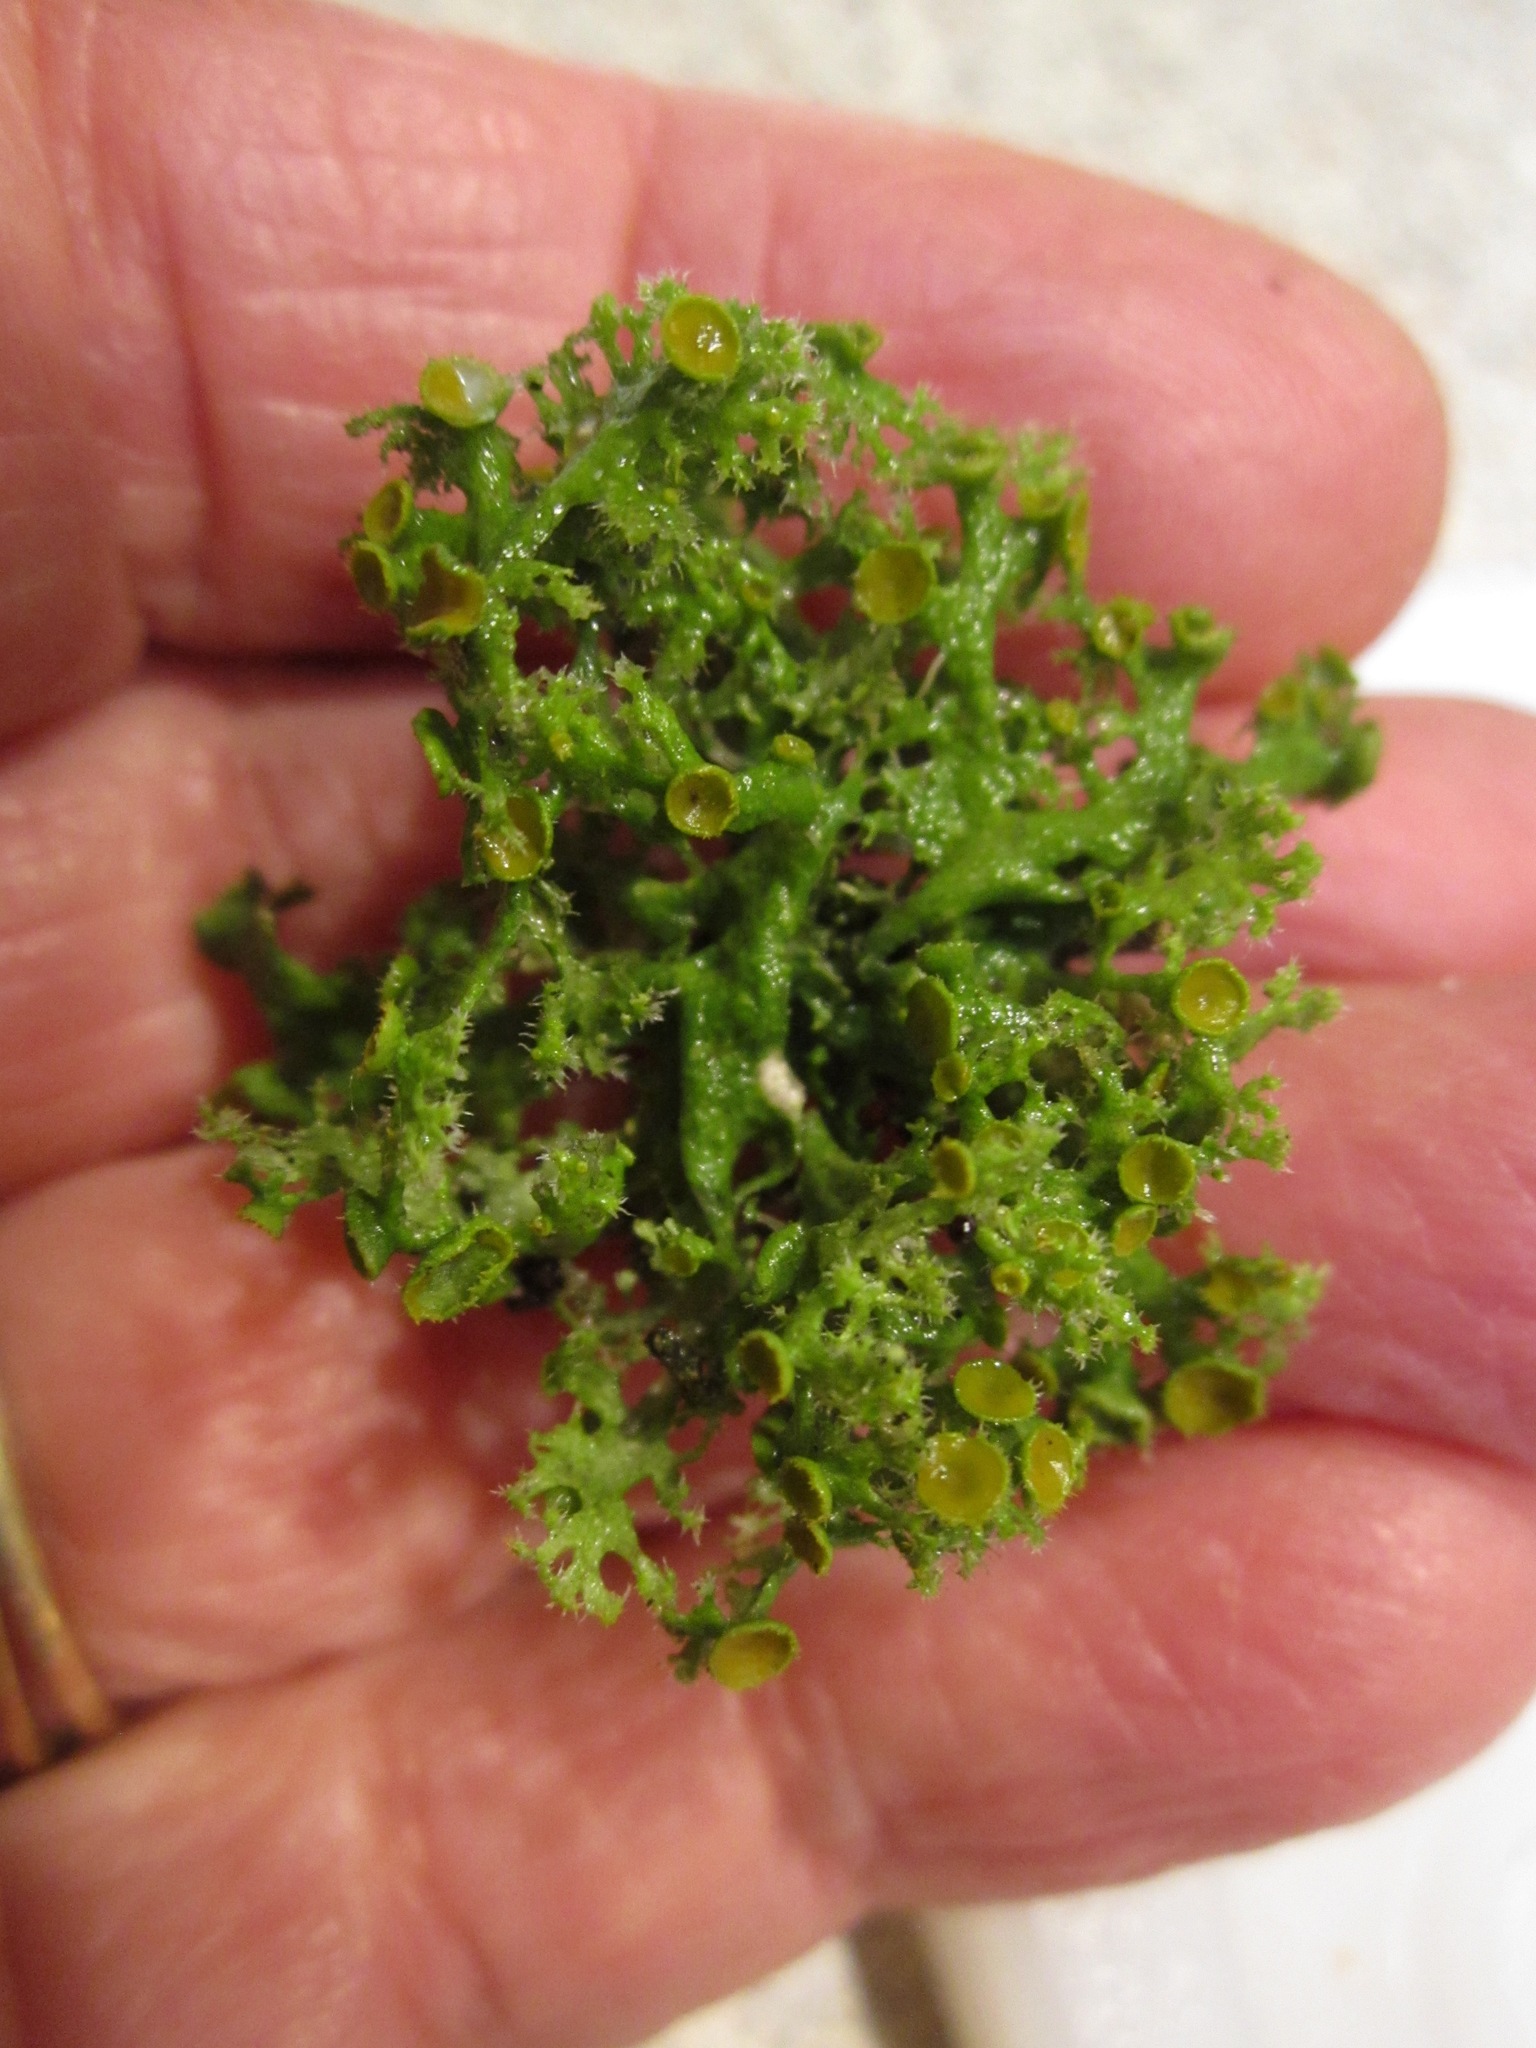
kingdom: Fungi
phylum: Ascomycota
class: Lecanoromycetes
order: Teloschistales
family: Teloschistaceae
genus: Niorma
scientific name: Niorma chrysophthalma
